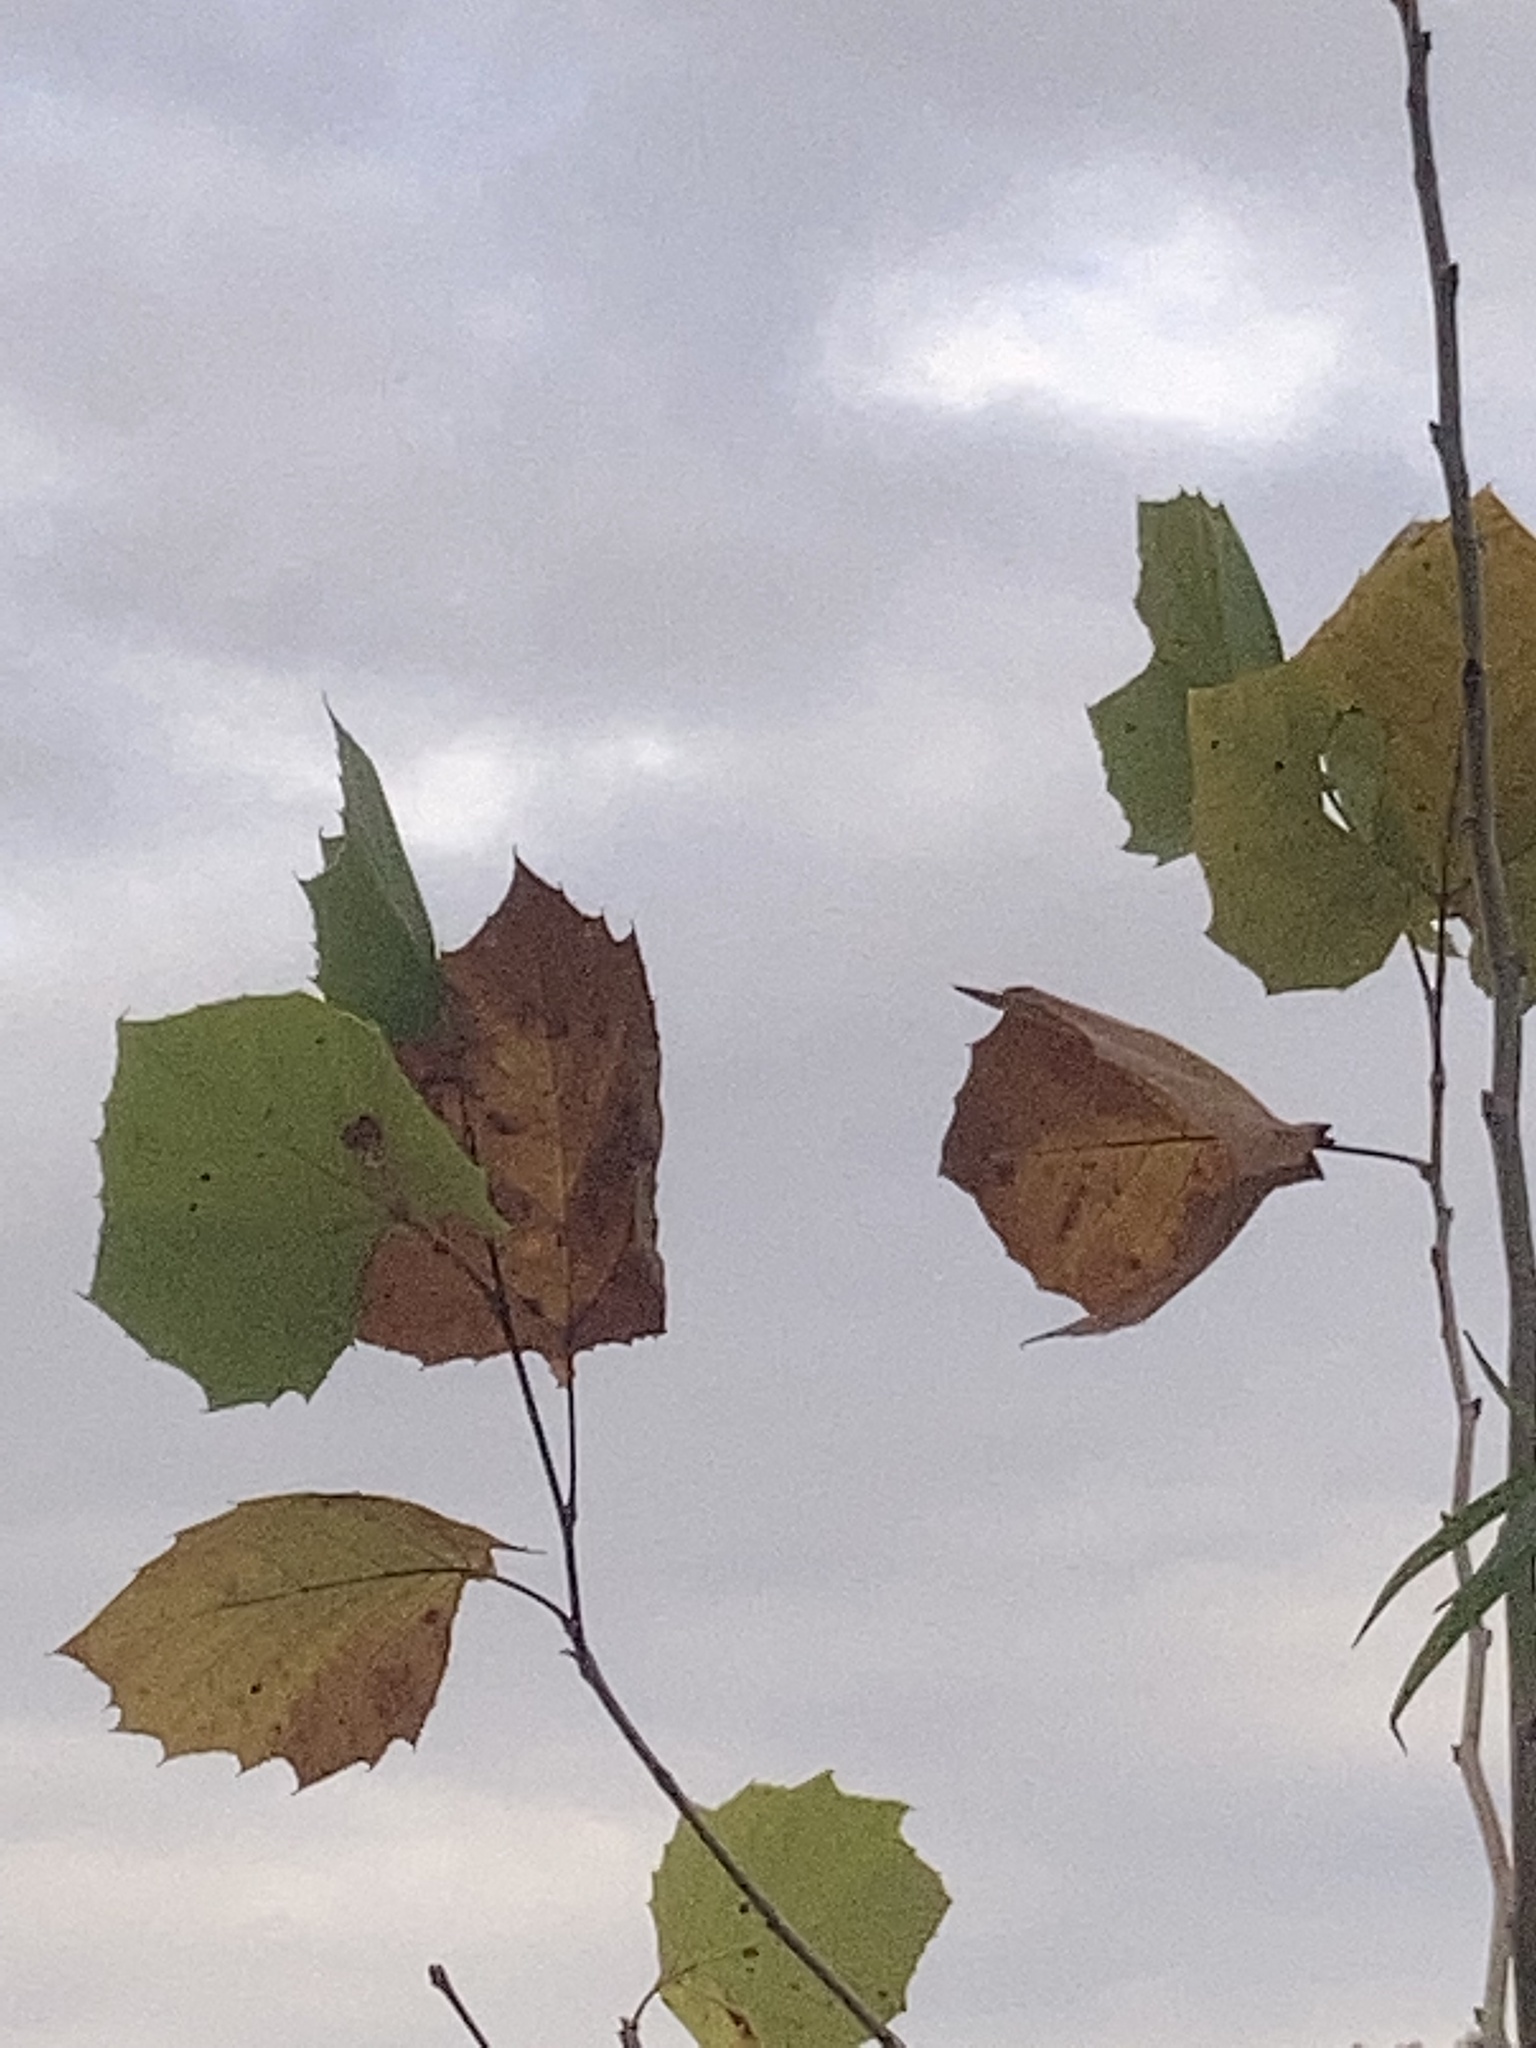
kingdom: Plantae
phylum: Tracheophyta
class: Magnoliopsida
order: Proteales
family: Platanaceae
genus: Platanus
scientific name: Platanus occidentalis
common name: American sycamore
